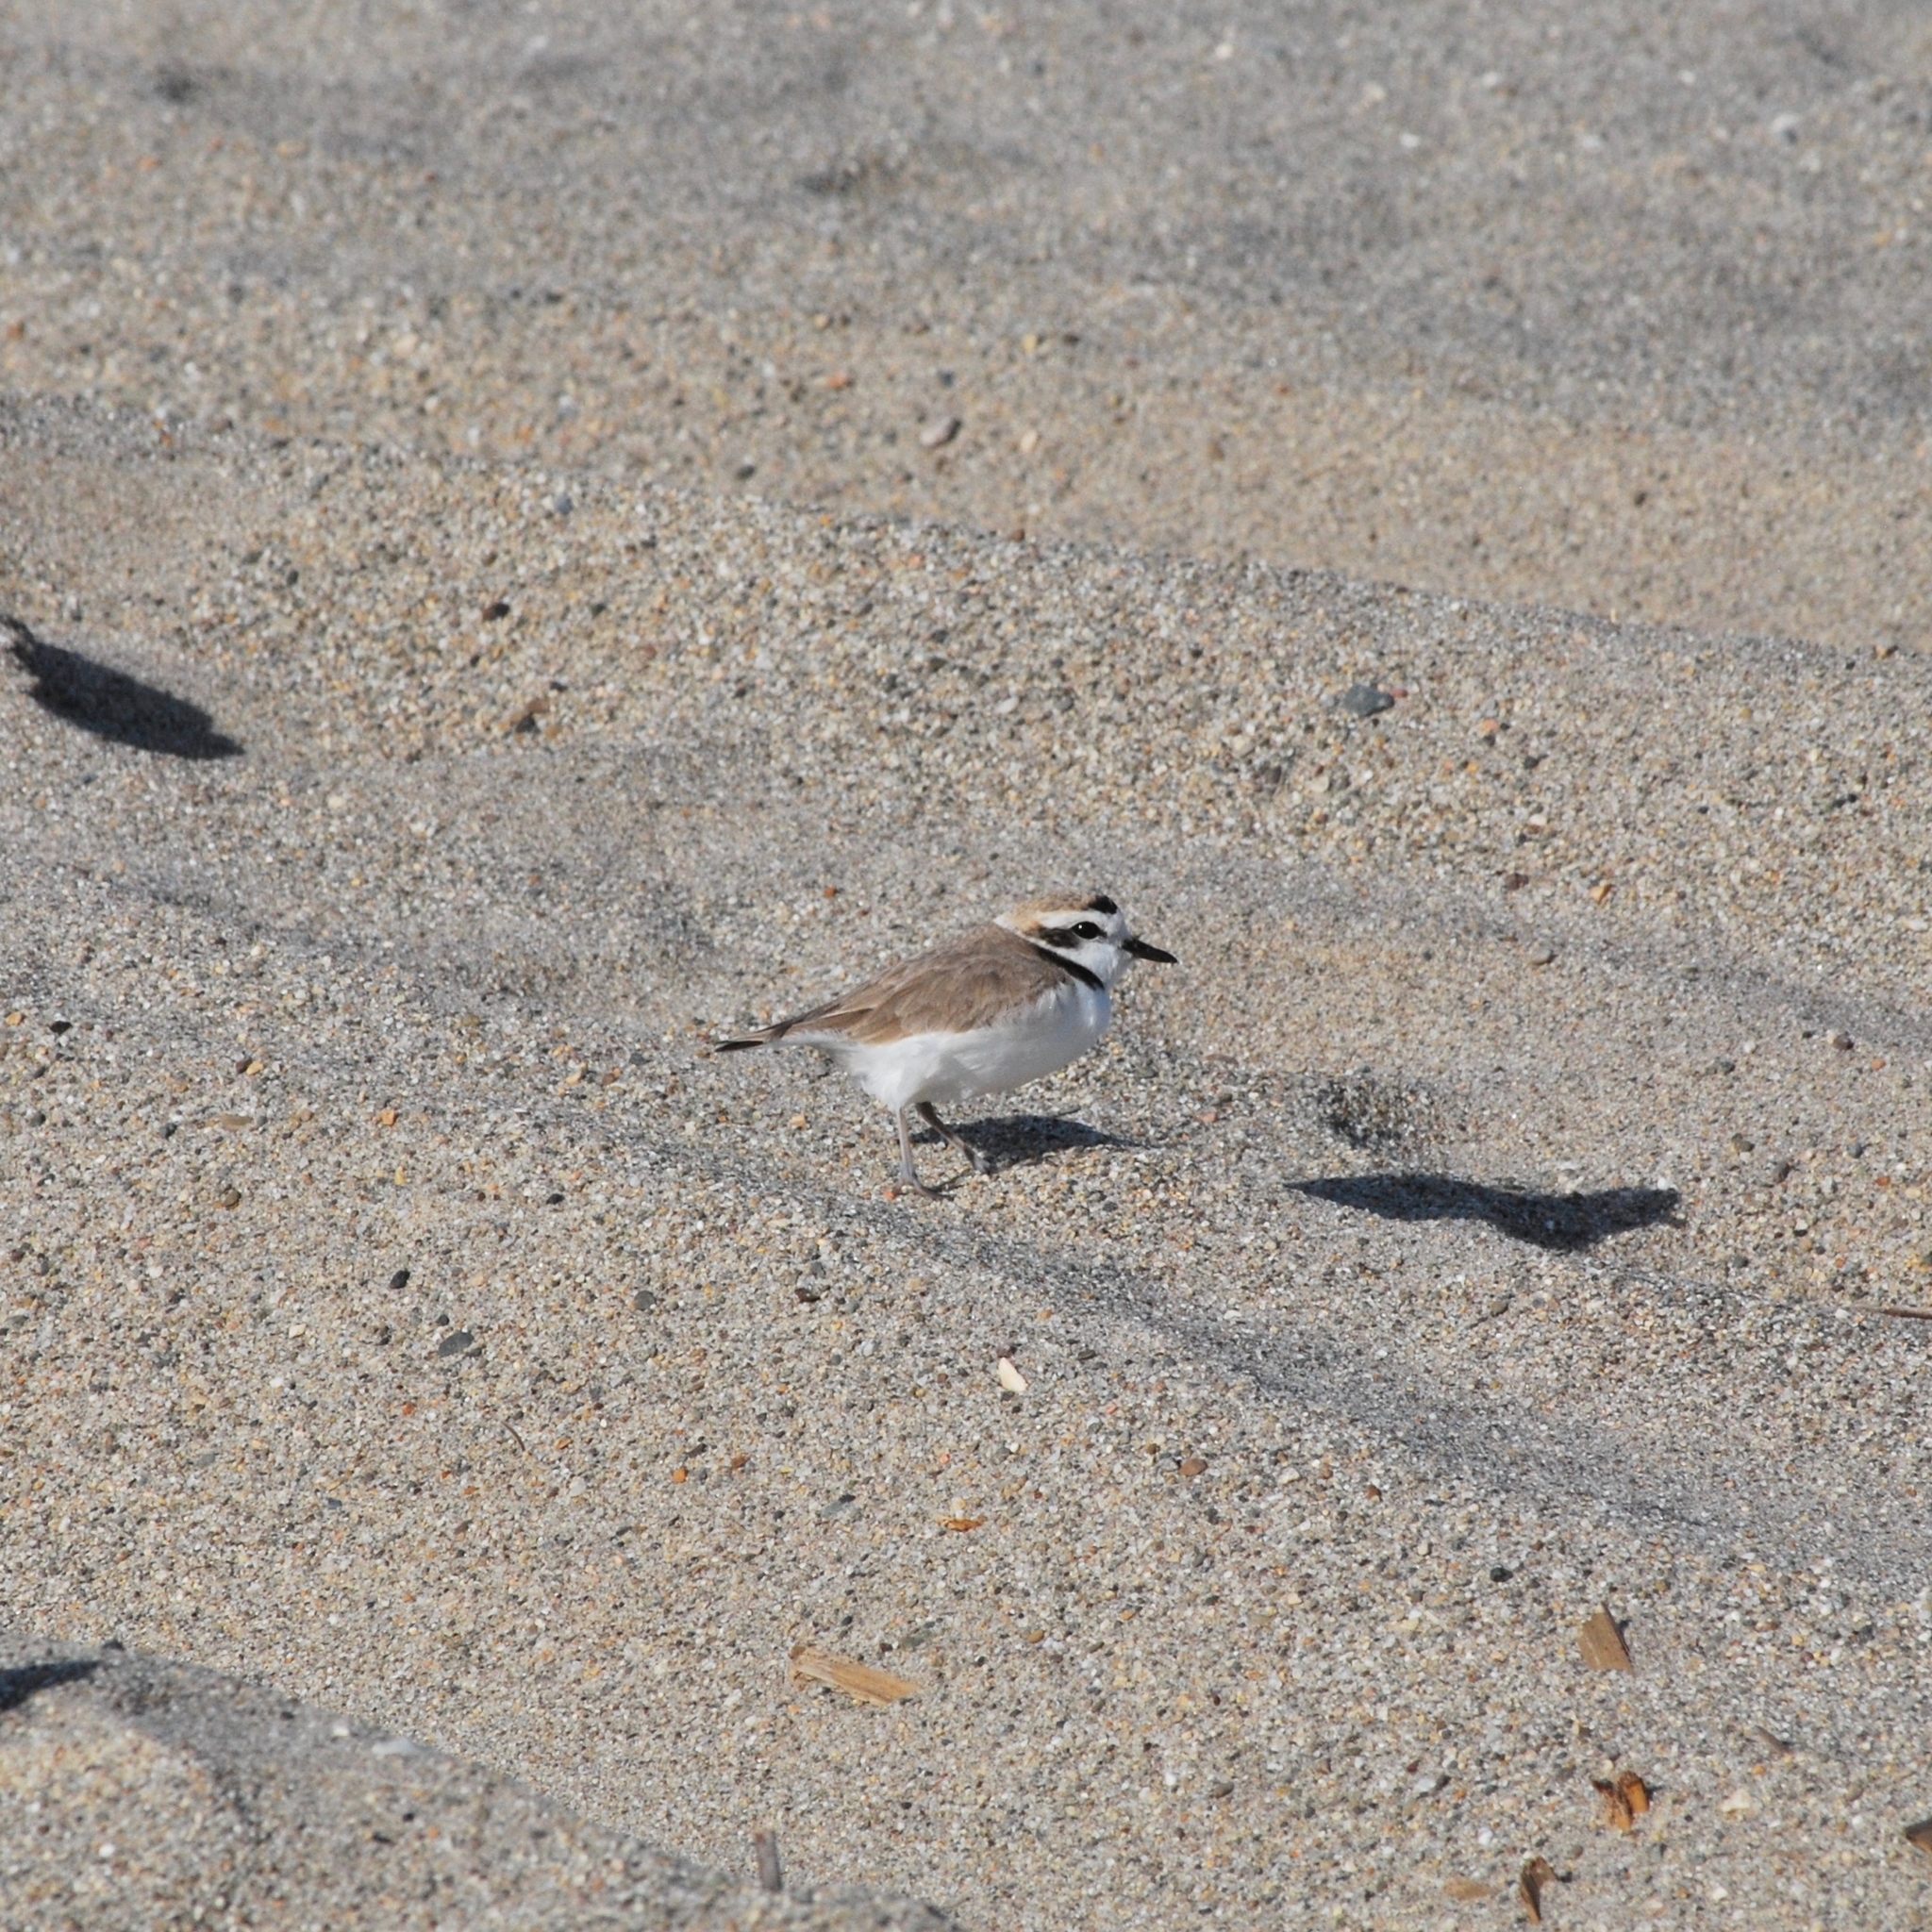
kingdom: Animalia
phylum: Chordata
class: Aves
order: Charadriiformes
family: Charadriidae
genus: Anarhynchus
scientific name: Anarhynchus
